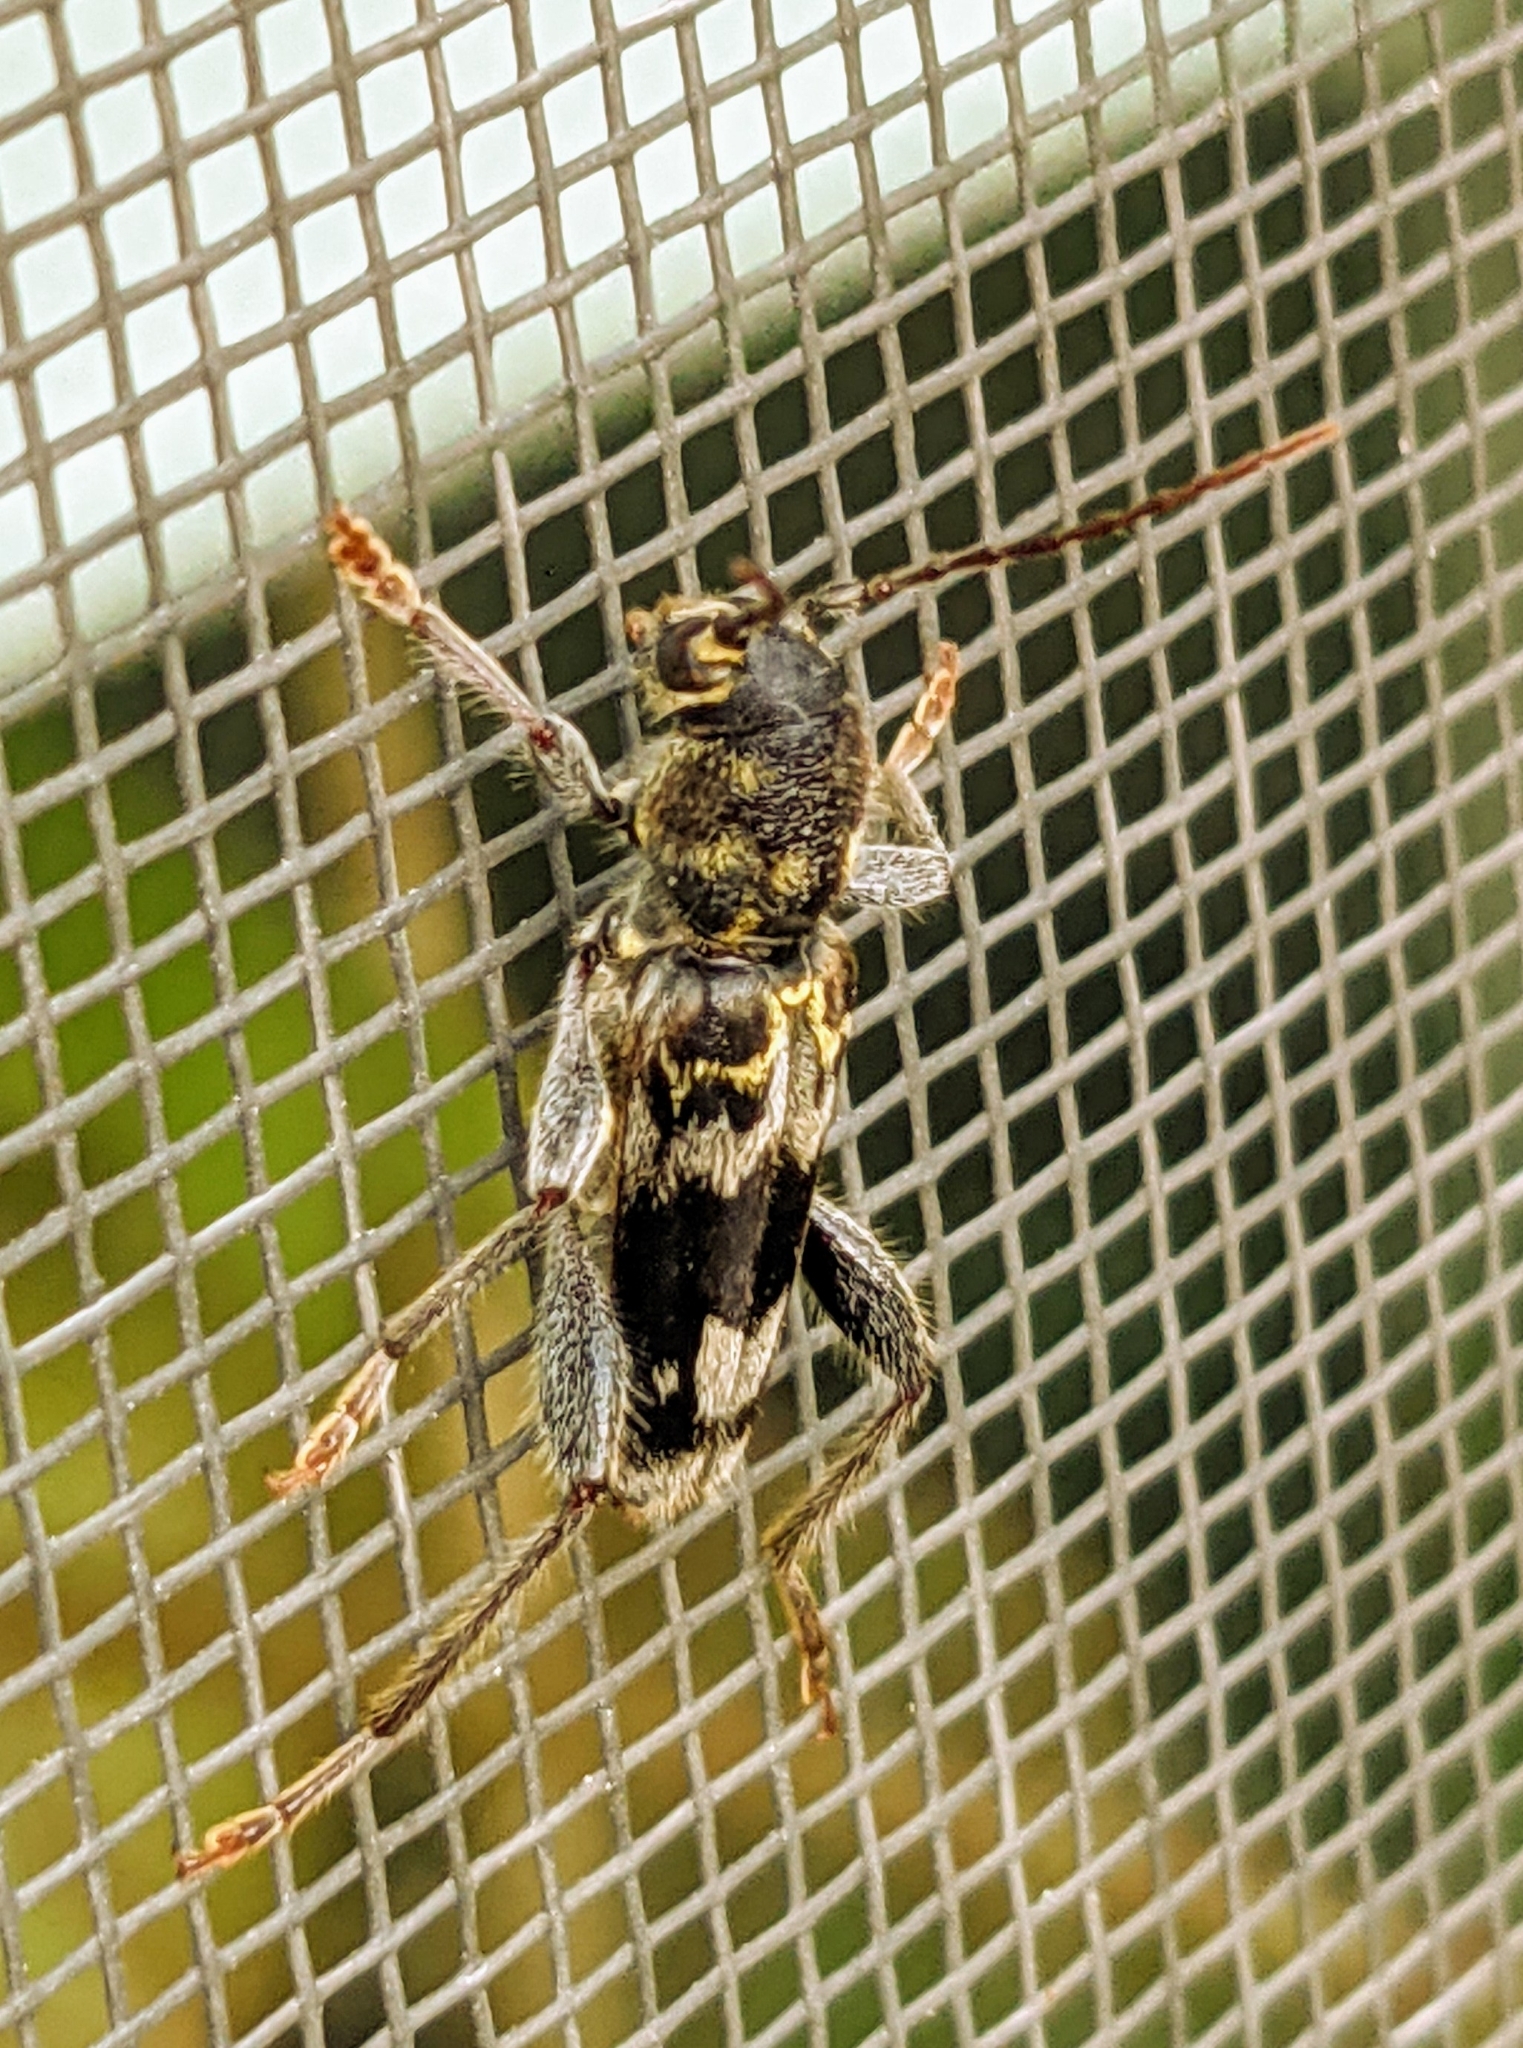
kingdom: Animalia
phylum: Arthropoda
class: Insecta
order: Coleoptera
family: Cerambycidae
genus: Xylotrechus
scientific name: Xylotrechus colonus
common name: Long-horned beetle
